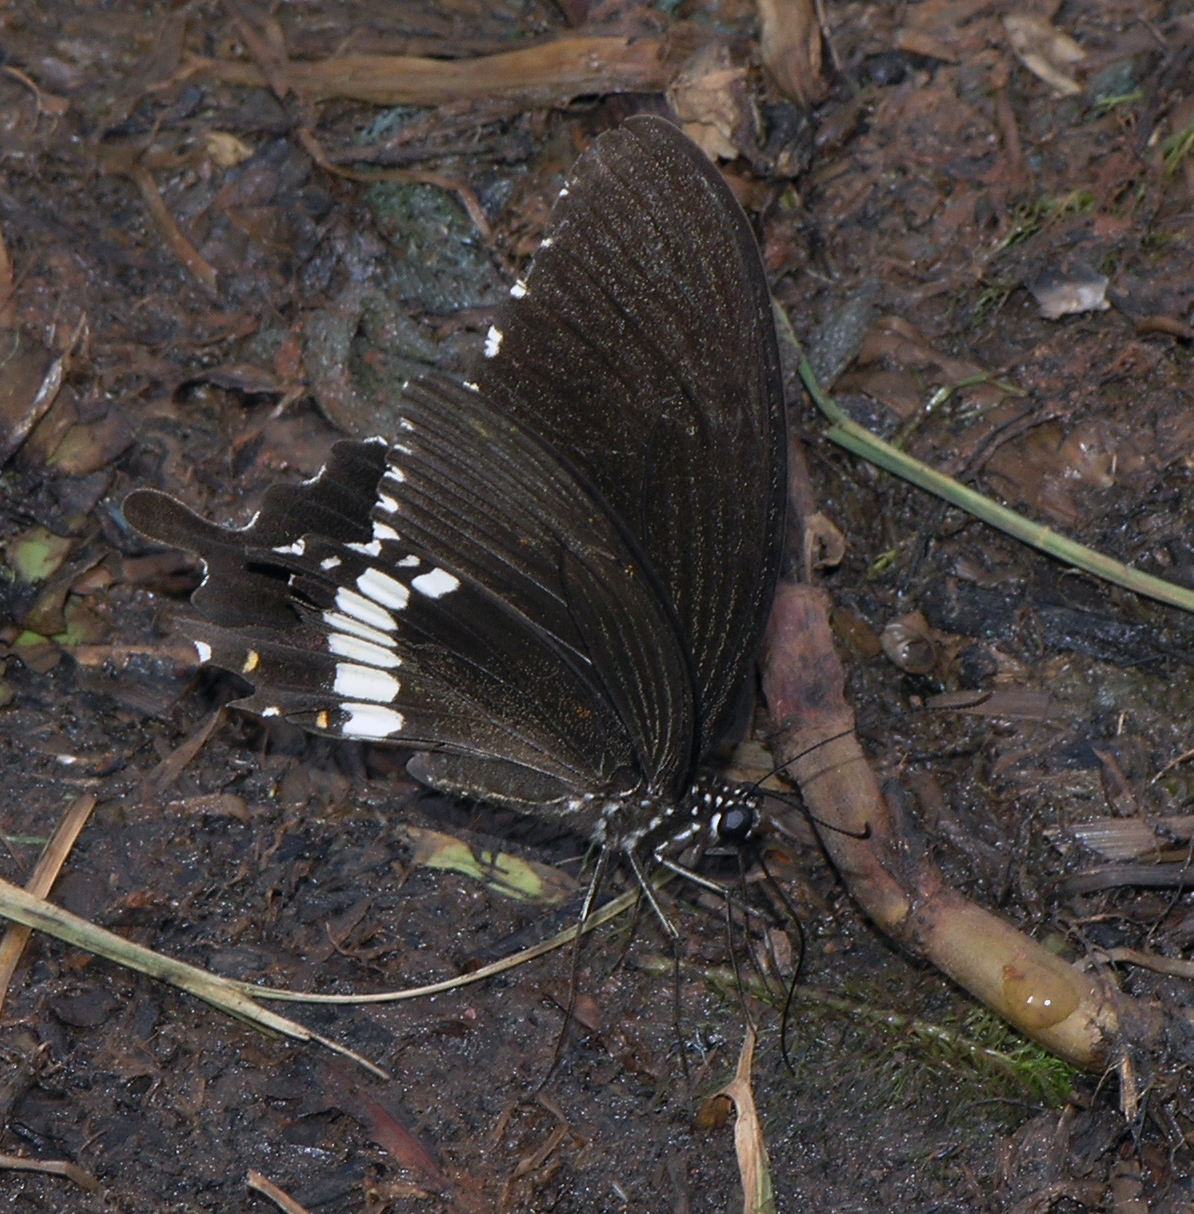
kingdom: Animalia
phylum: Arthropoda
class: Insecta
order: Lepidoptera
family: Papilionidae
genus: Papilio
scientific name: Papilio polytes
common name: Common mormon
